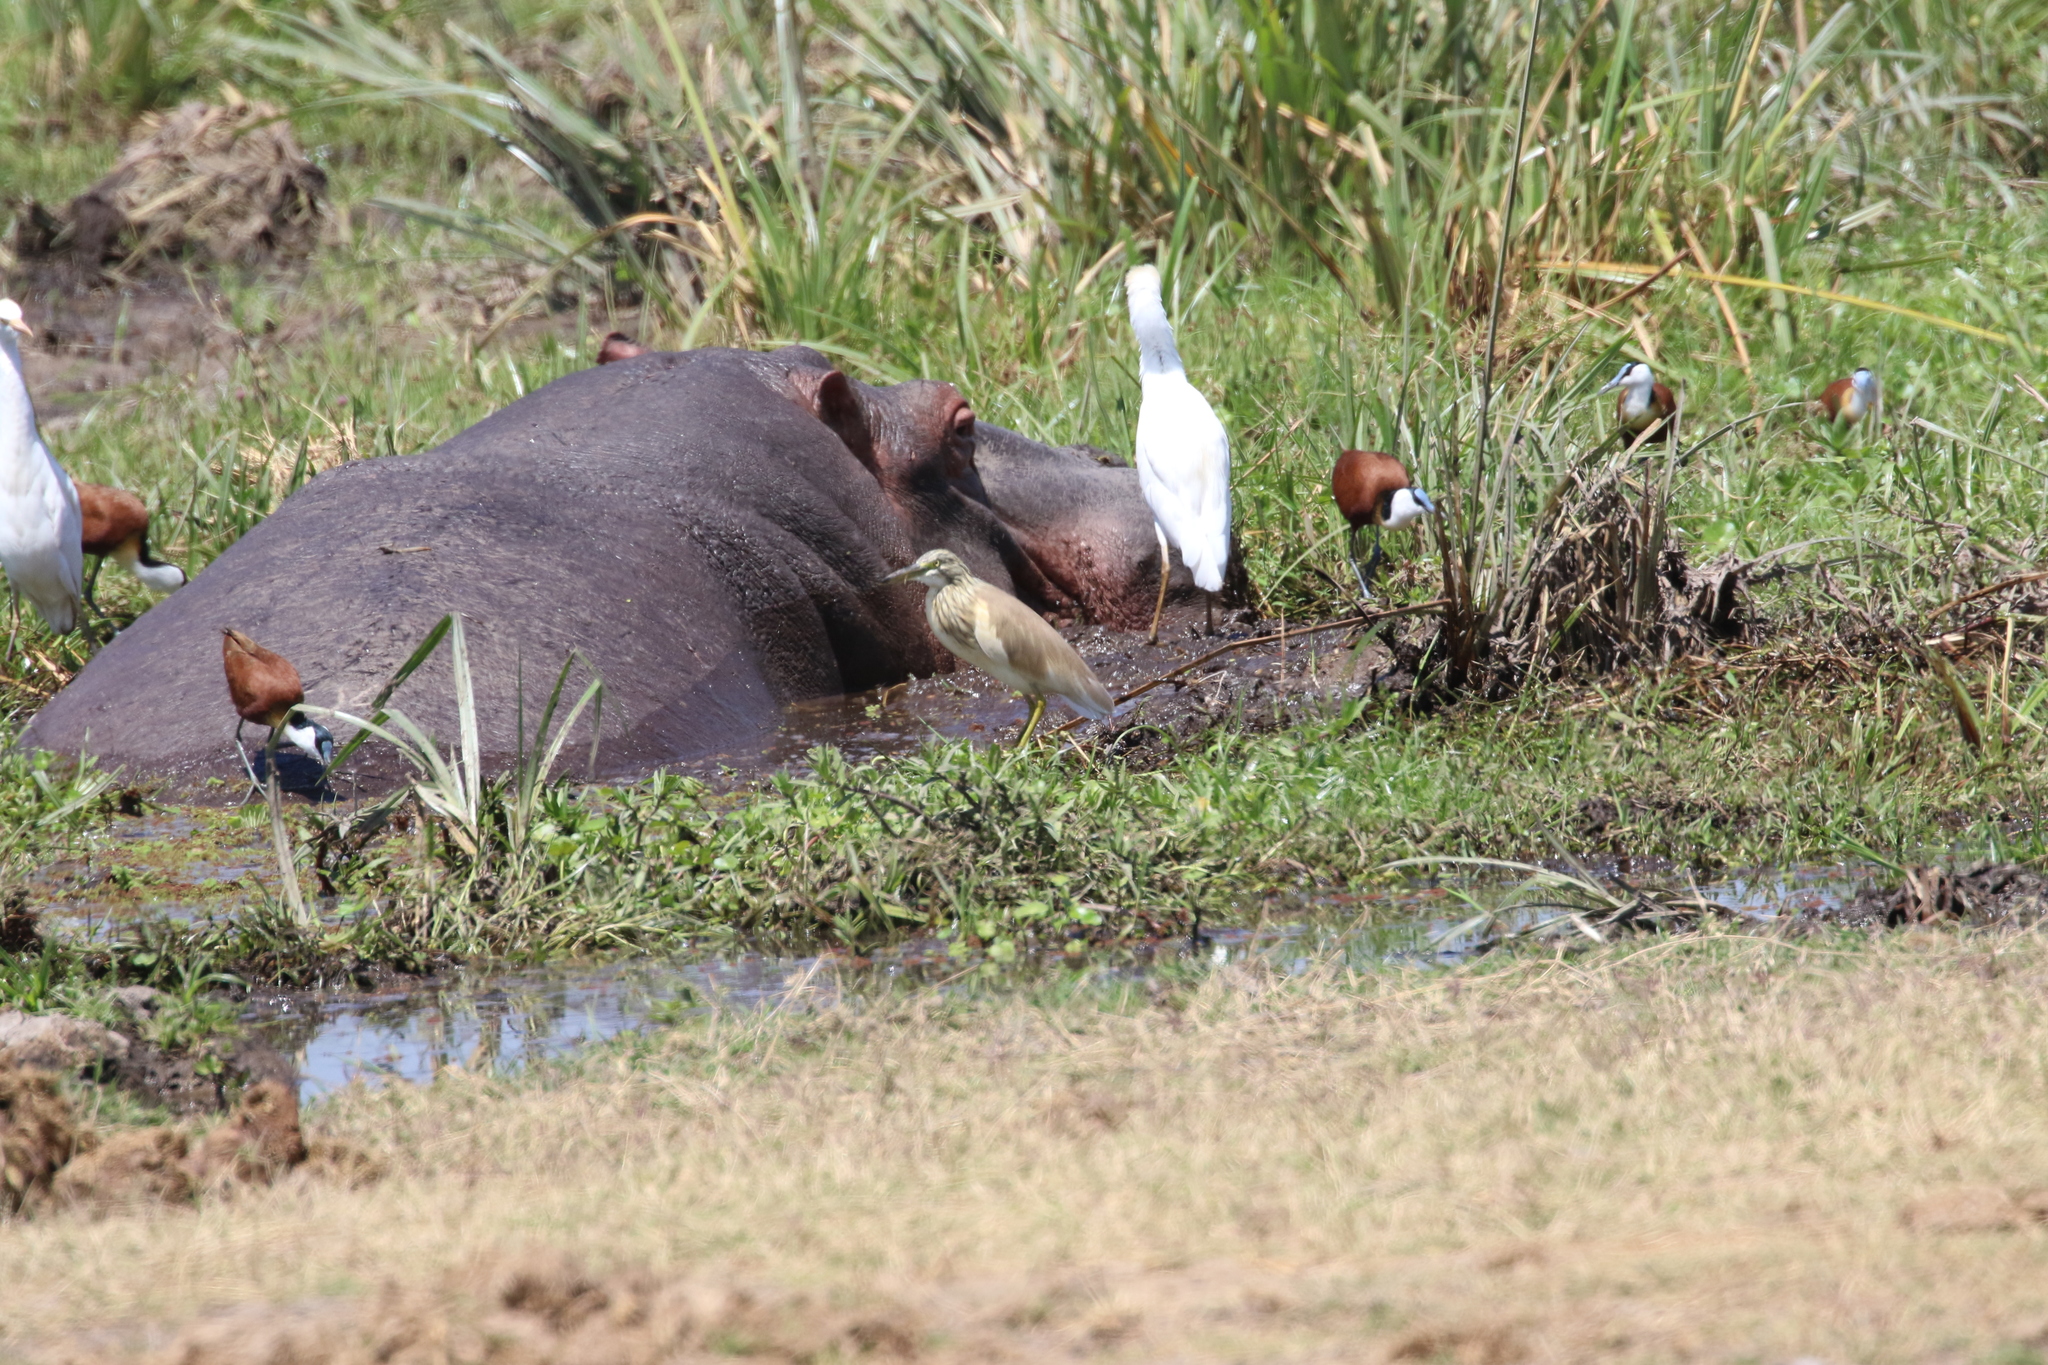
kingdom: Animalia
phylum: Chordata
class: Aves
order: Pelecaniformes
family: Ardeidae
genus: Ardeola
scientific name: Ardeola ralloides
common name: Squacco heron
